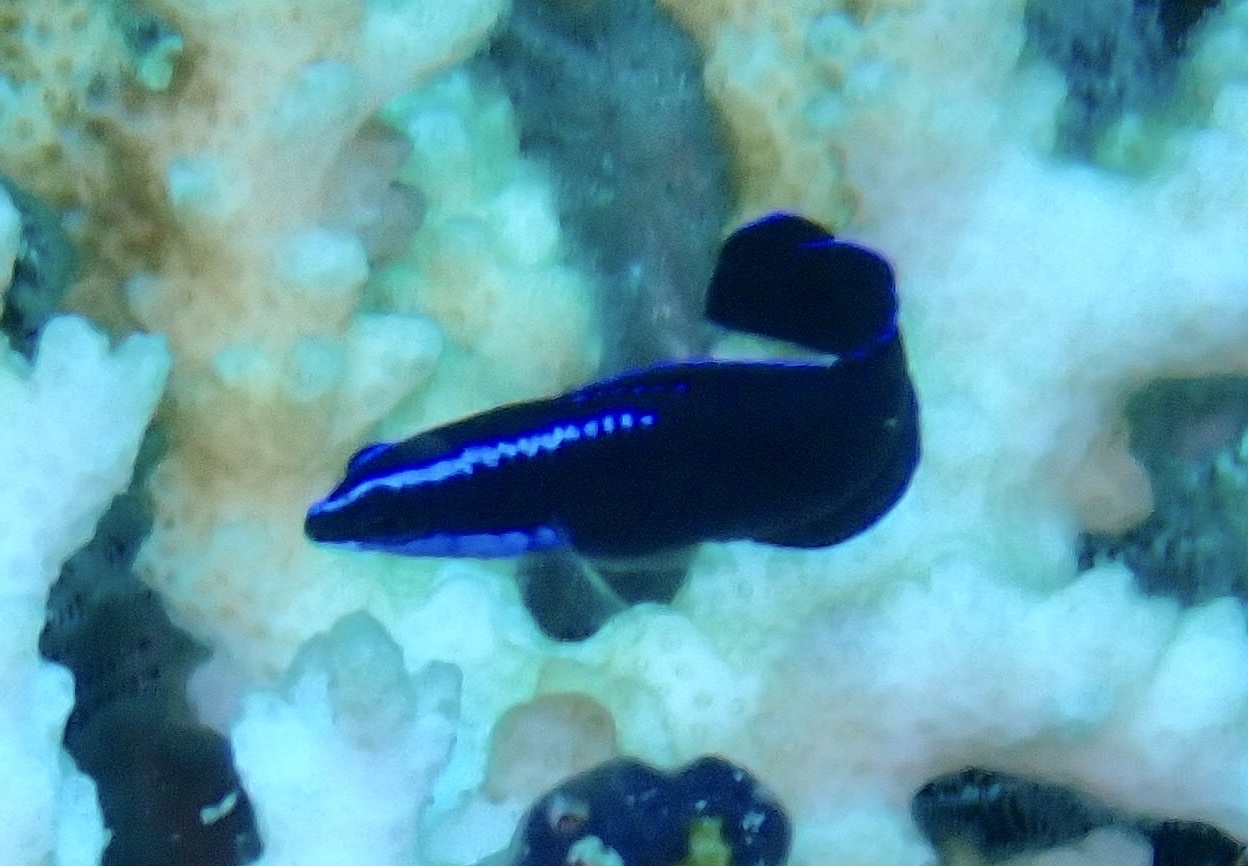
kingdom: Animalia
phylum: Chordata
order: Perciformes
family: Pseudochromidae
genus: Pseudochromis
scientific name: Pseudochromis springeri
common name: Blue-striped dottyback
